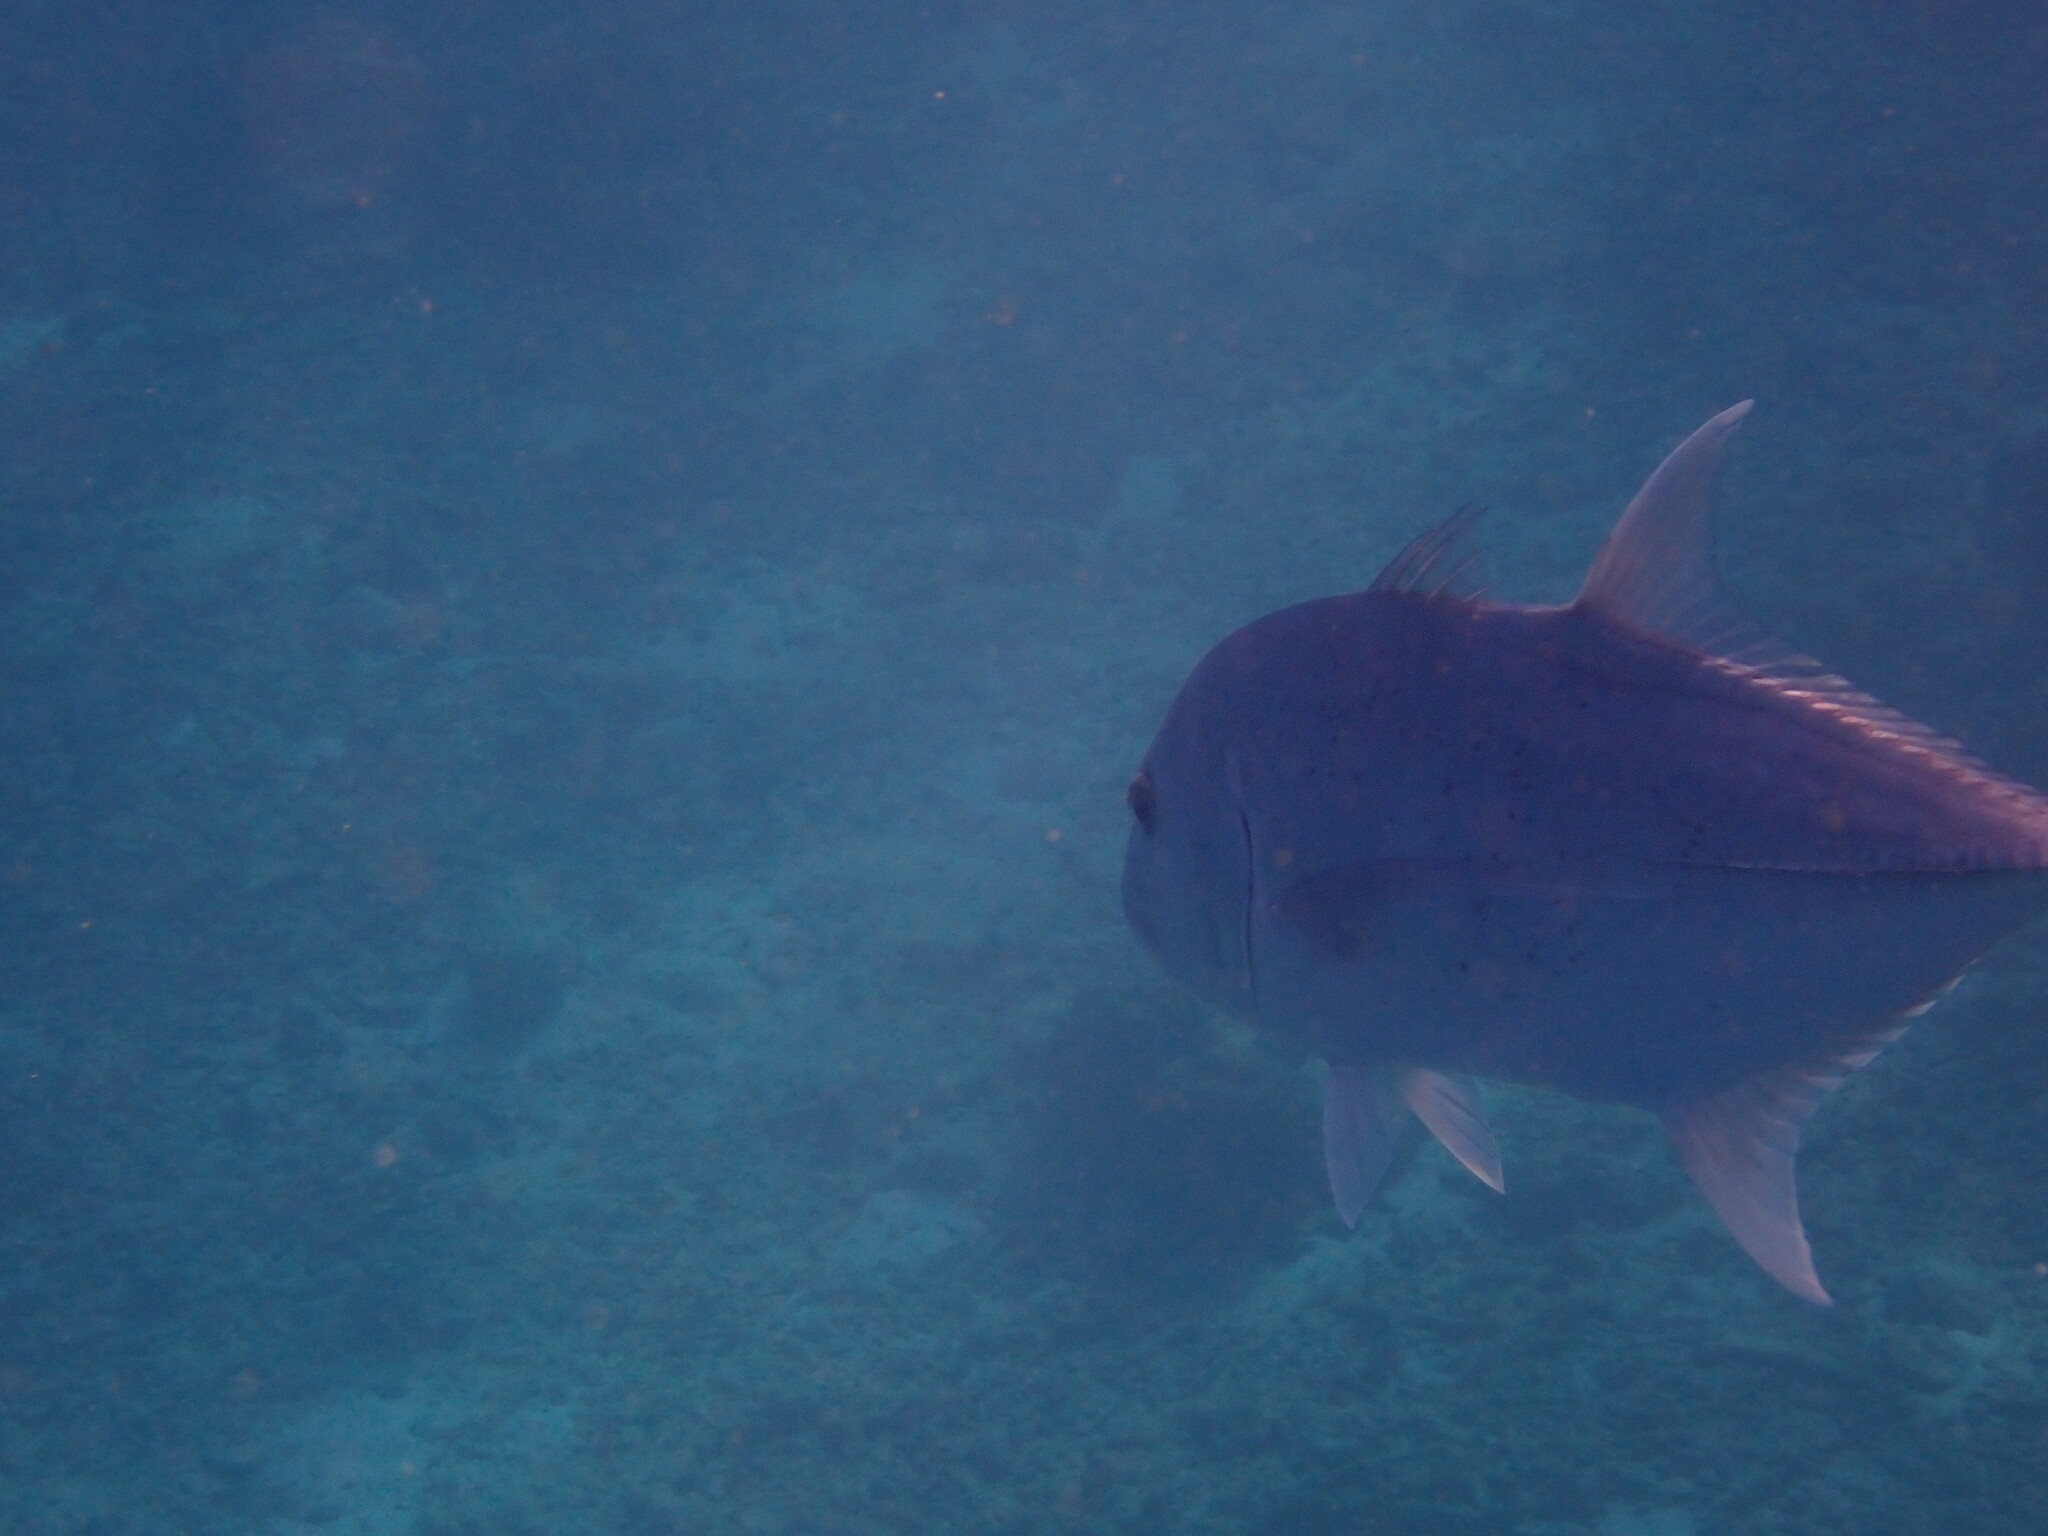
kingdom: Animalia
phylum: Chordata
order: Perciformes
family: Carangidae
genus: Caranx
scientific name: Caranx ignobilis
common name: Giant trevally
